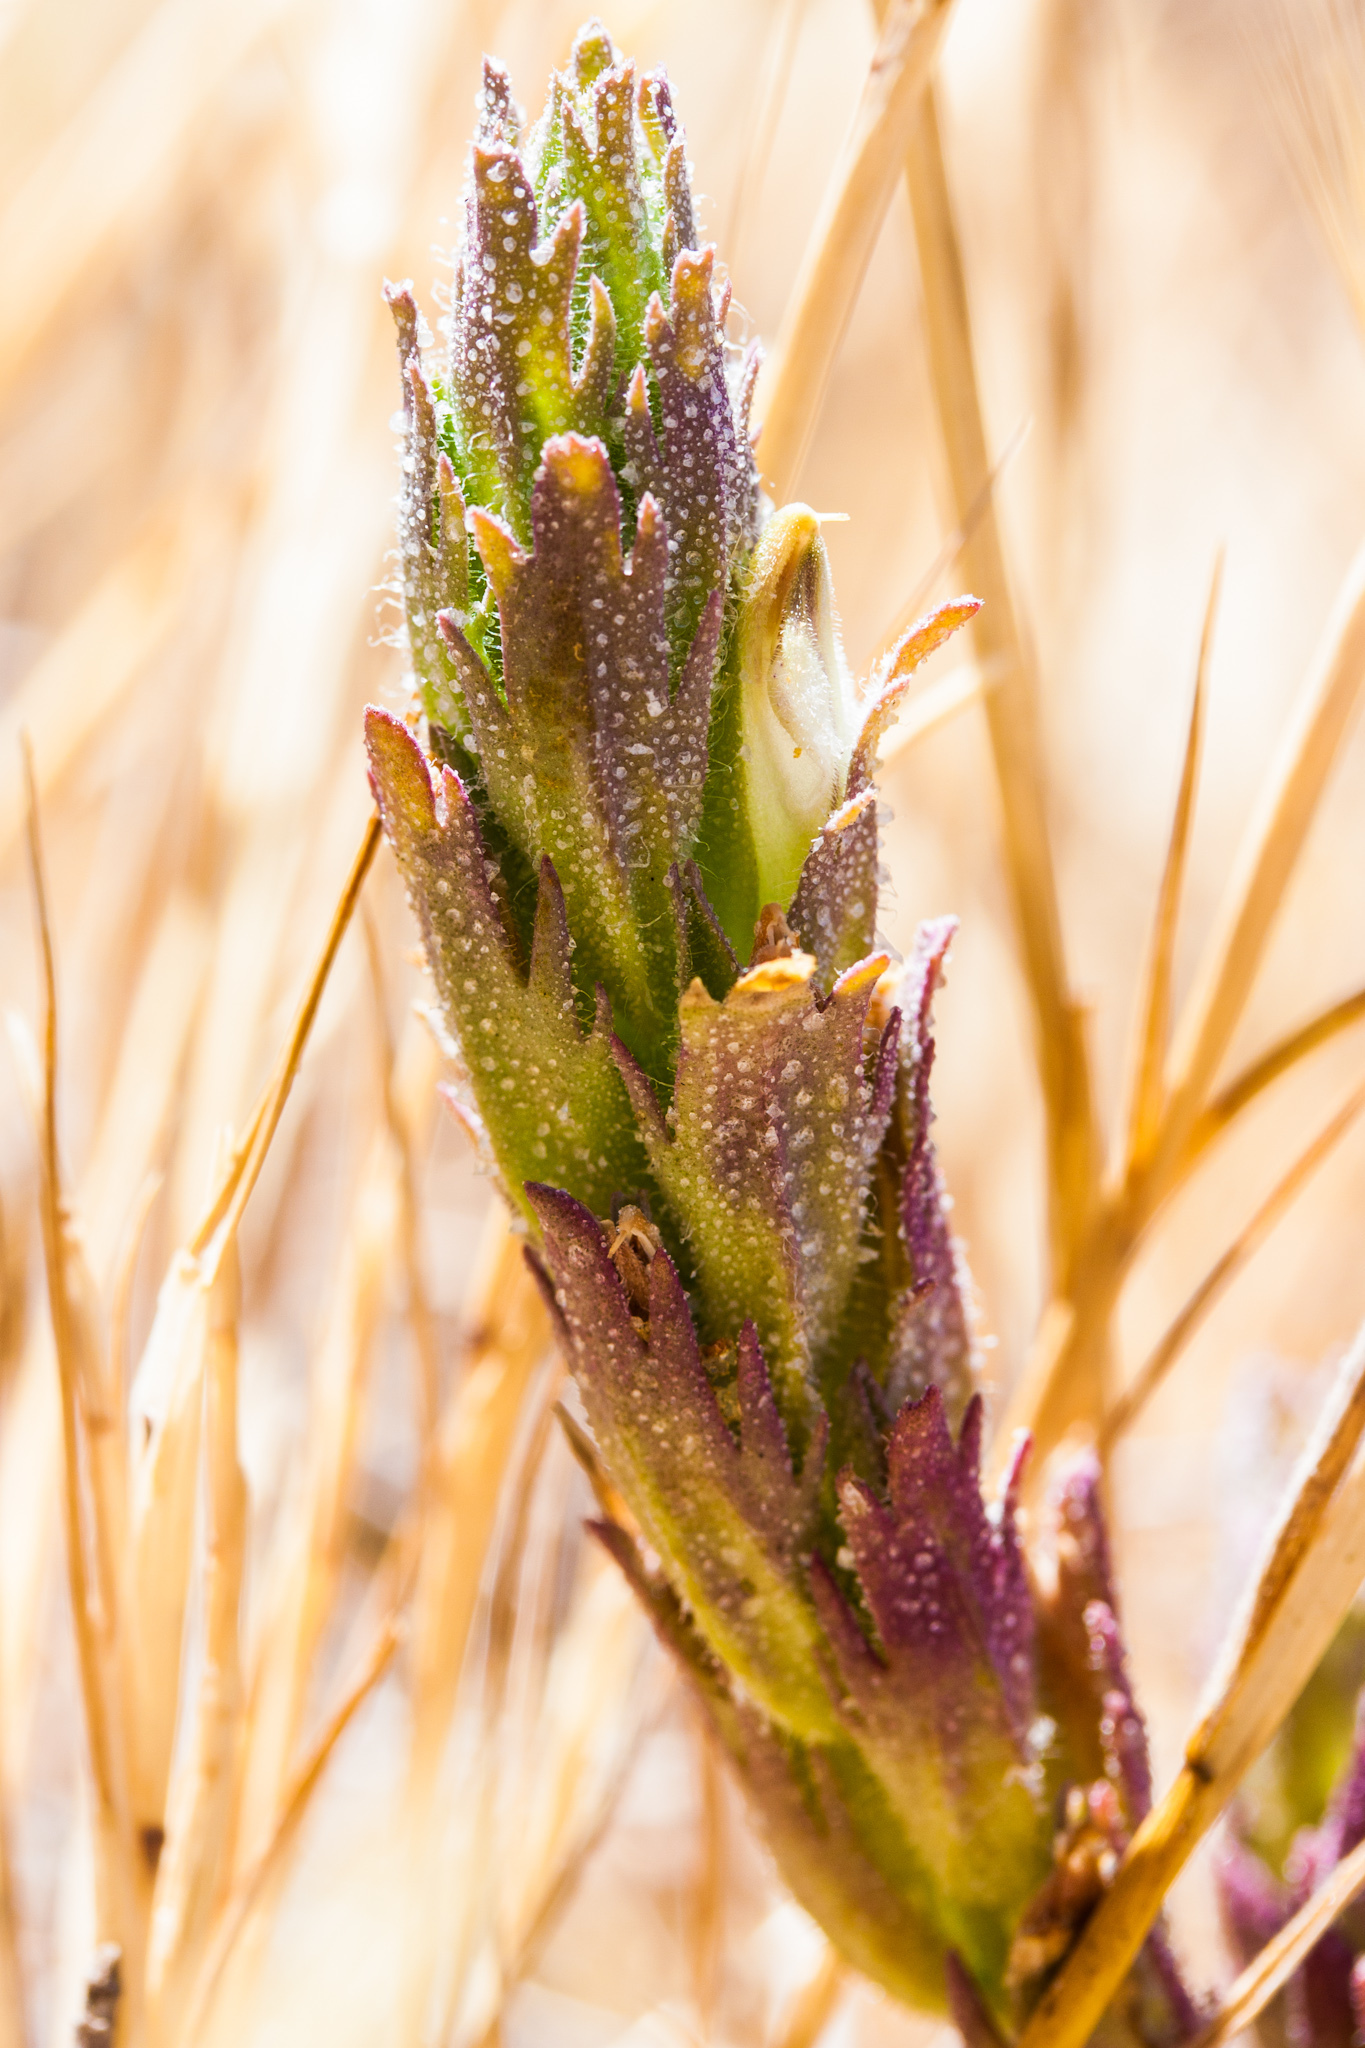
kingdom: Plantae
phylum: Tracheophyta
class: Magnoliopsida
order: Lamiales
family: Orobanchaceae
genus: Chloropyron
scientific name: Chloropyron palmatum
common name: Palmate salty bird's-beak
